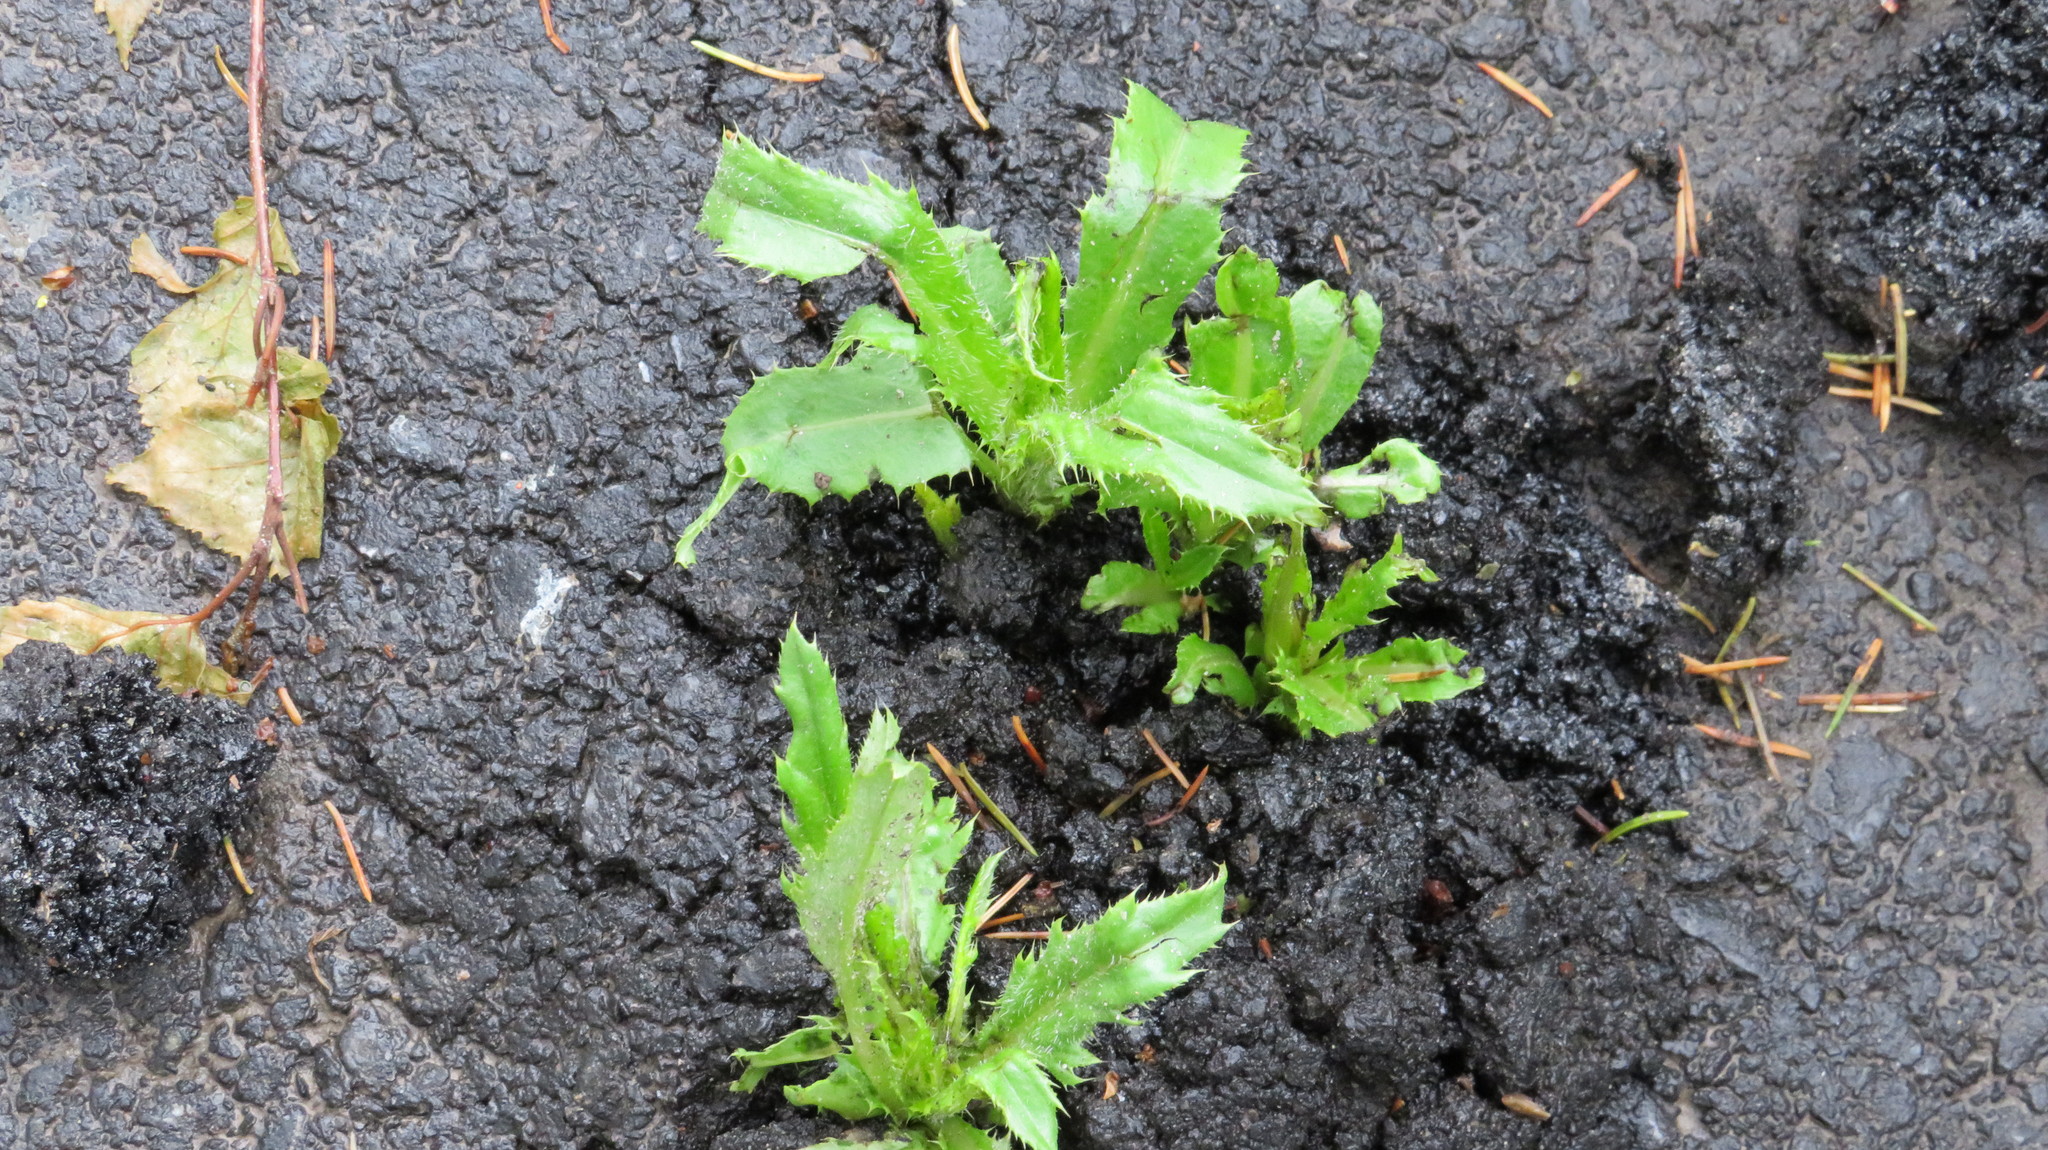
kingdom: Plantae
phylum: Tracheophyta
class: Magnoliopsida
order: Asterales
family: Asteraceae
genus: Cirsium
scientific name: Cirsium arvense
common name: Creeping thistle
